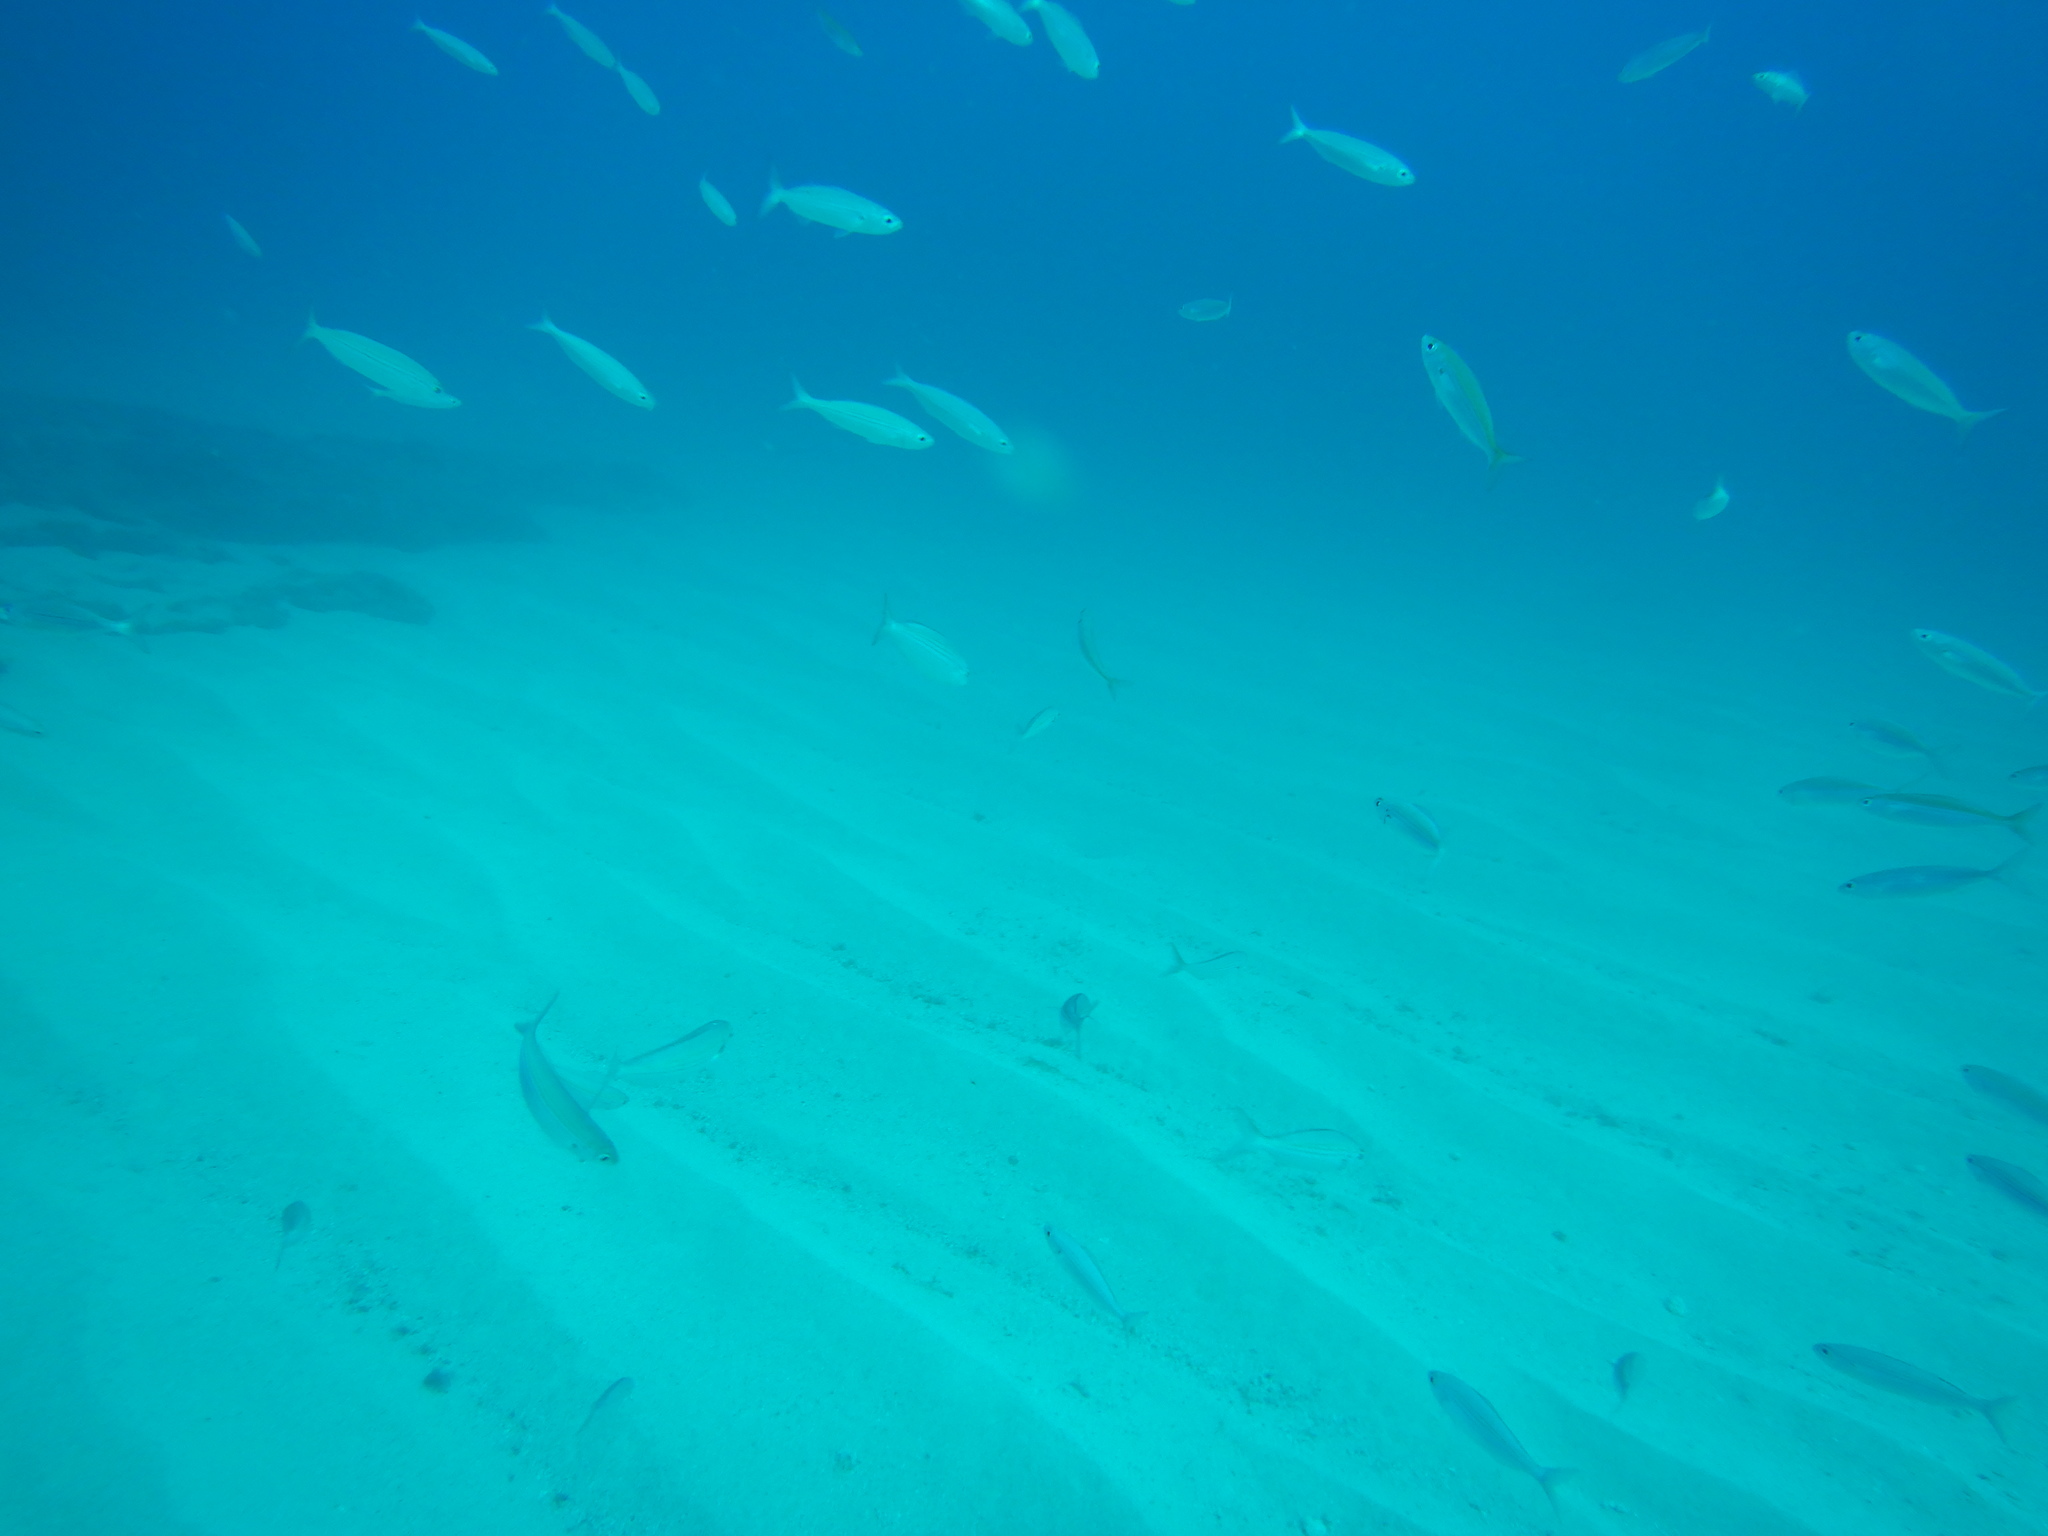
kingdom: Animalia
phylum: Chordata
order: Perciformes
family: Sparidae
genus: Boops
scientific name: Boops boops
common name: Bogue
